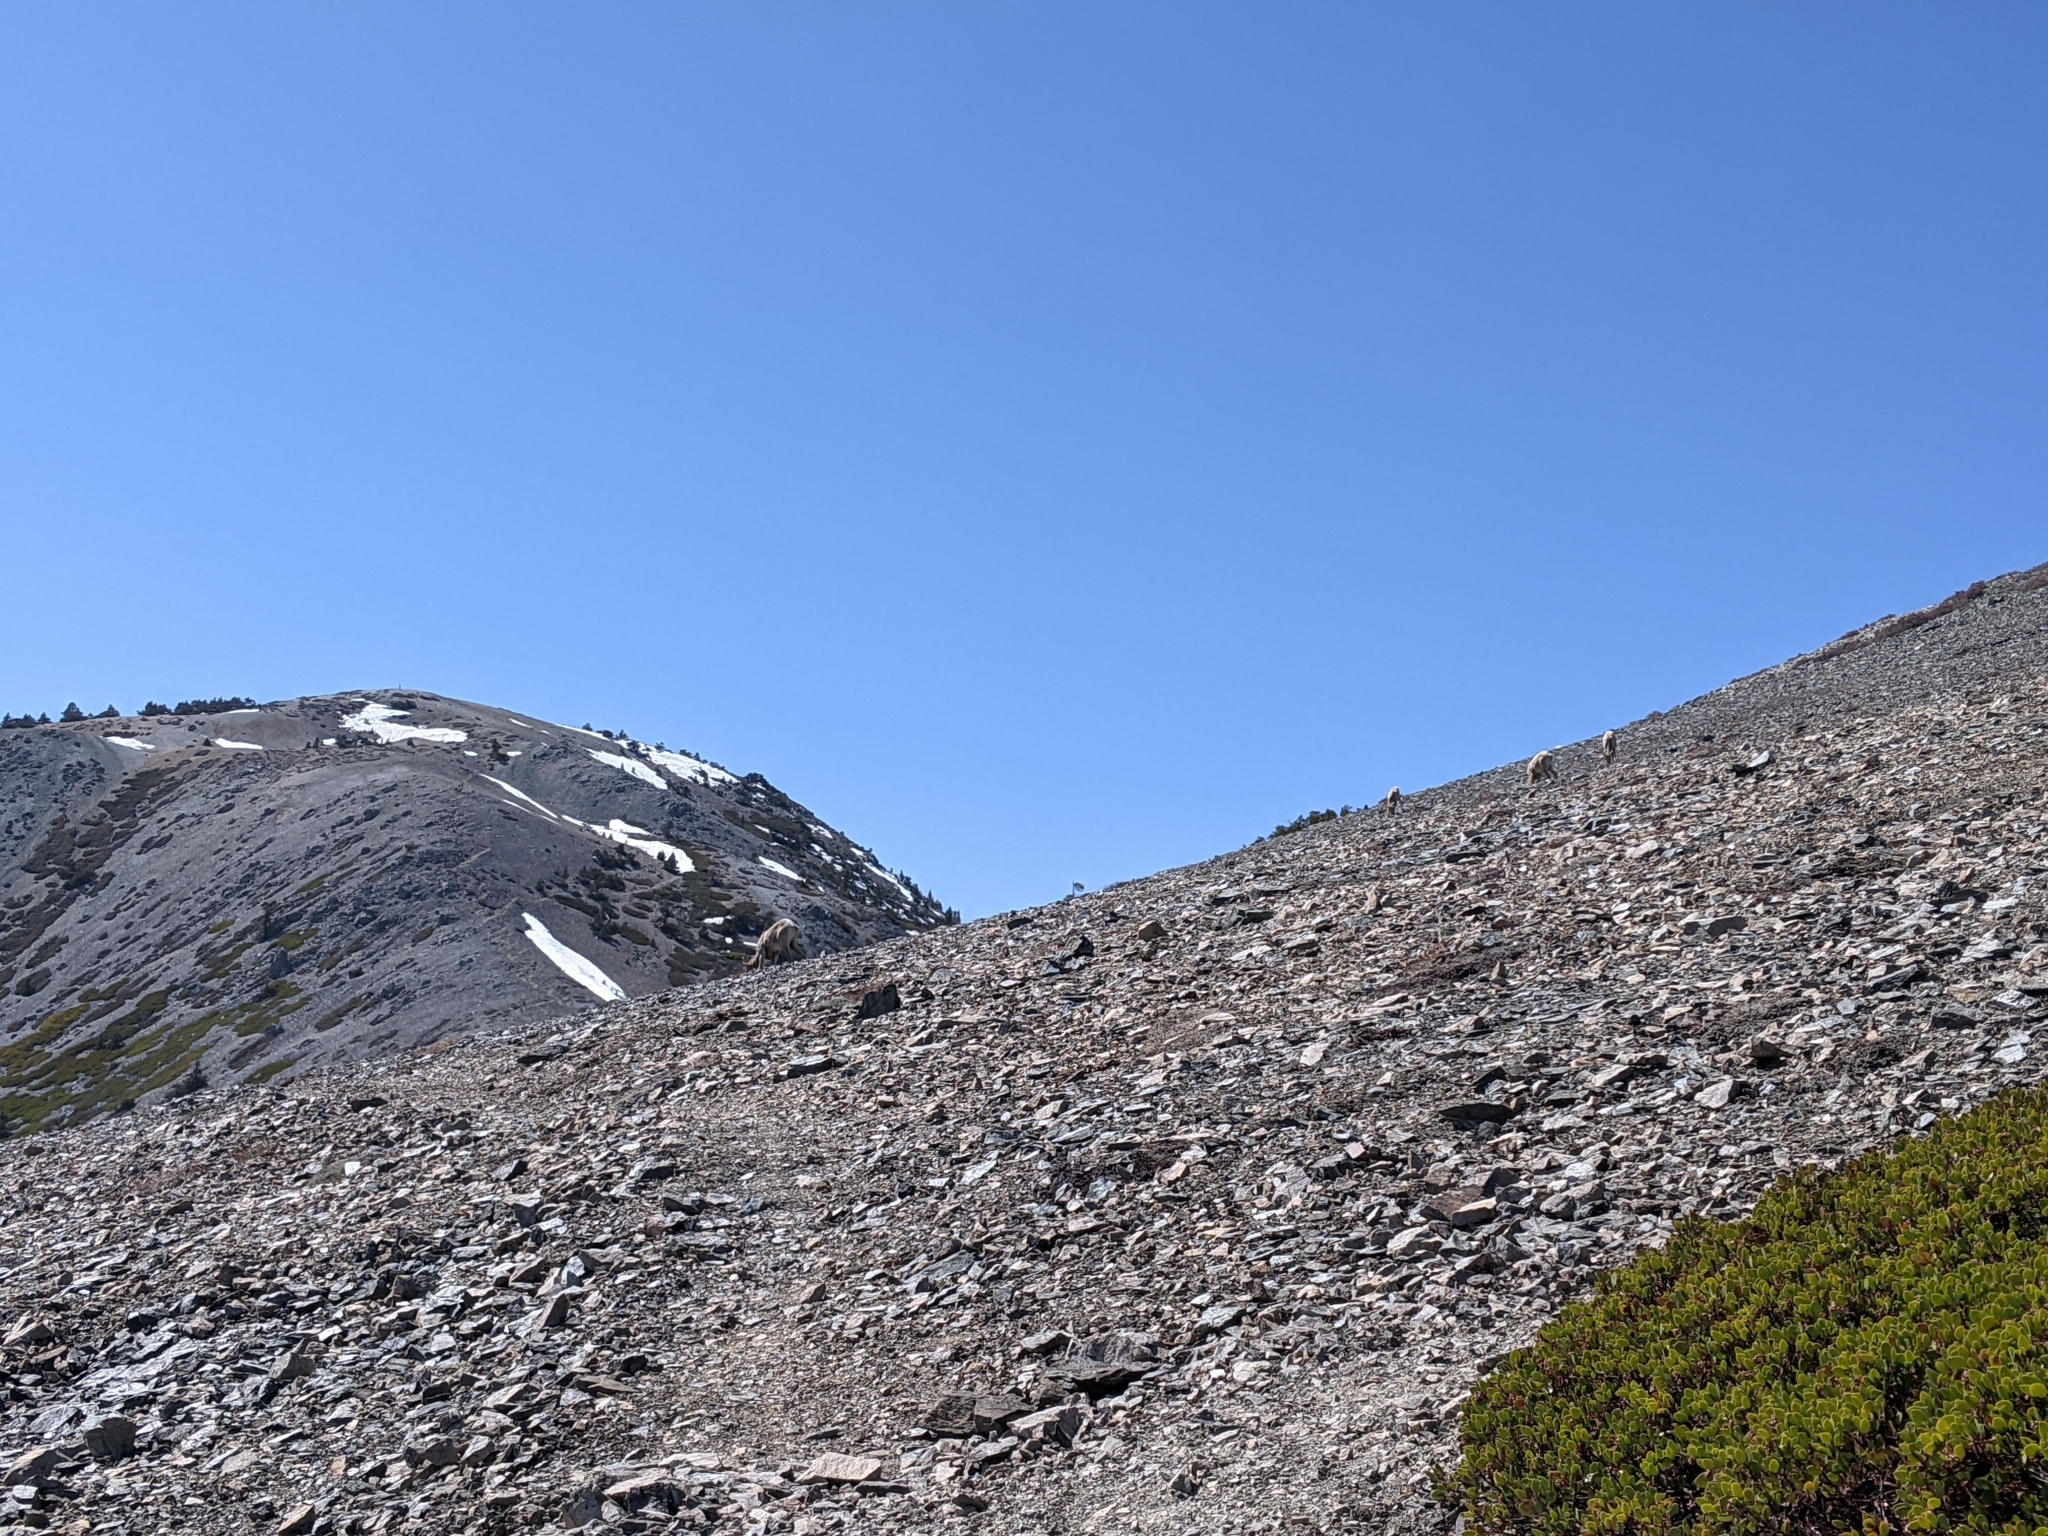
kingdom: Animalia
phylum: Chordata
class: Mammalia
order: Artiodactyla
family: Bovidae
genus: Ovis
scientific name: Ovis canadensis
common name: Bighorn sheep
